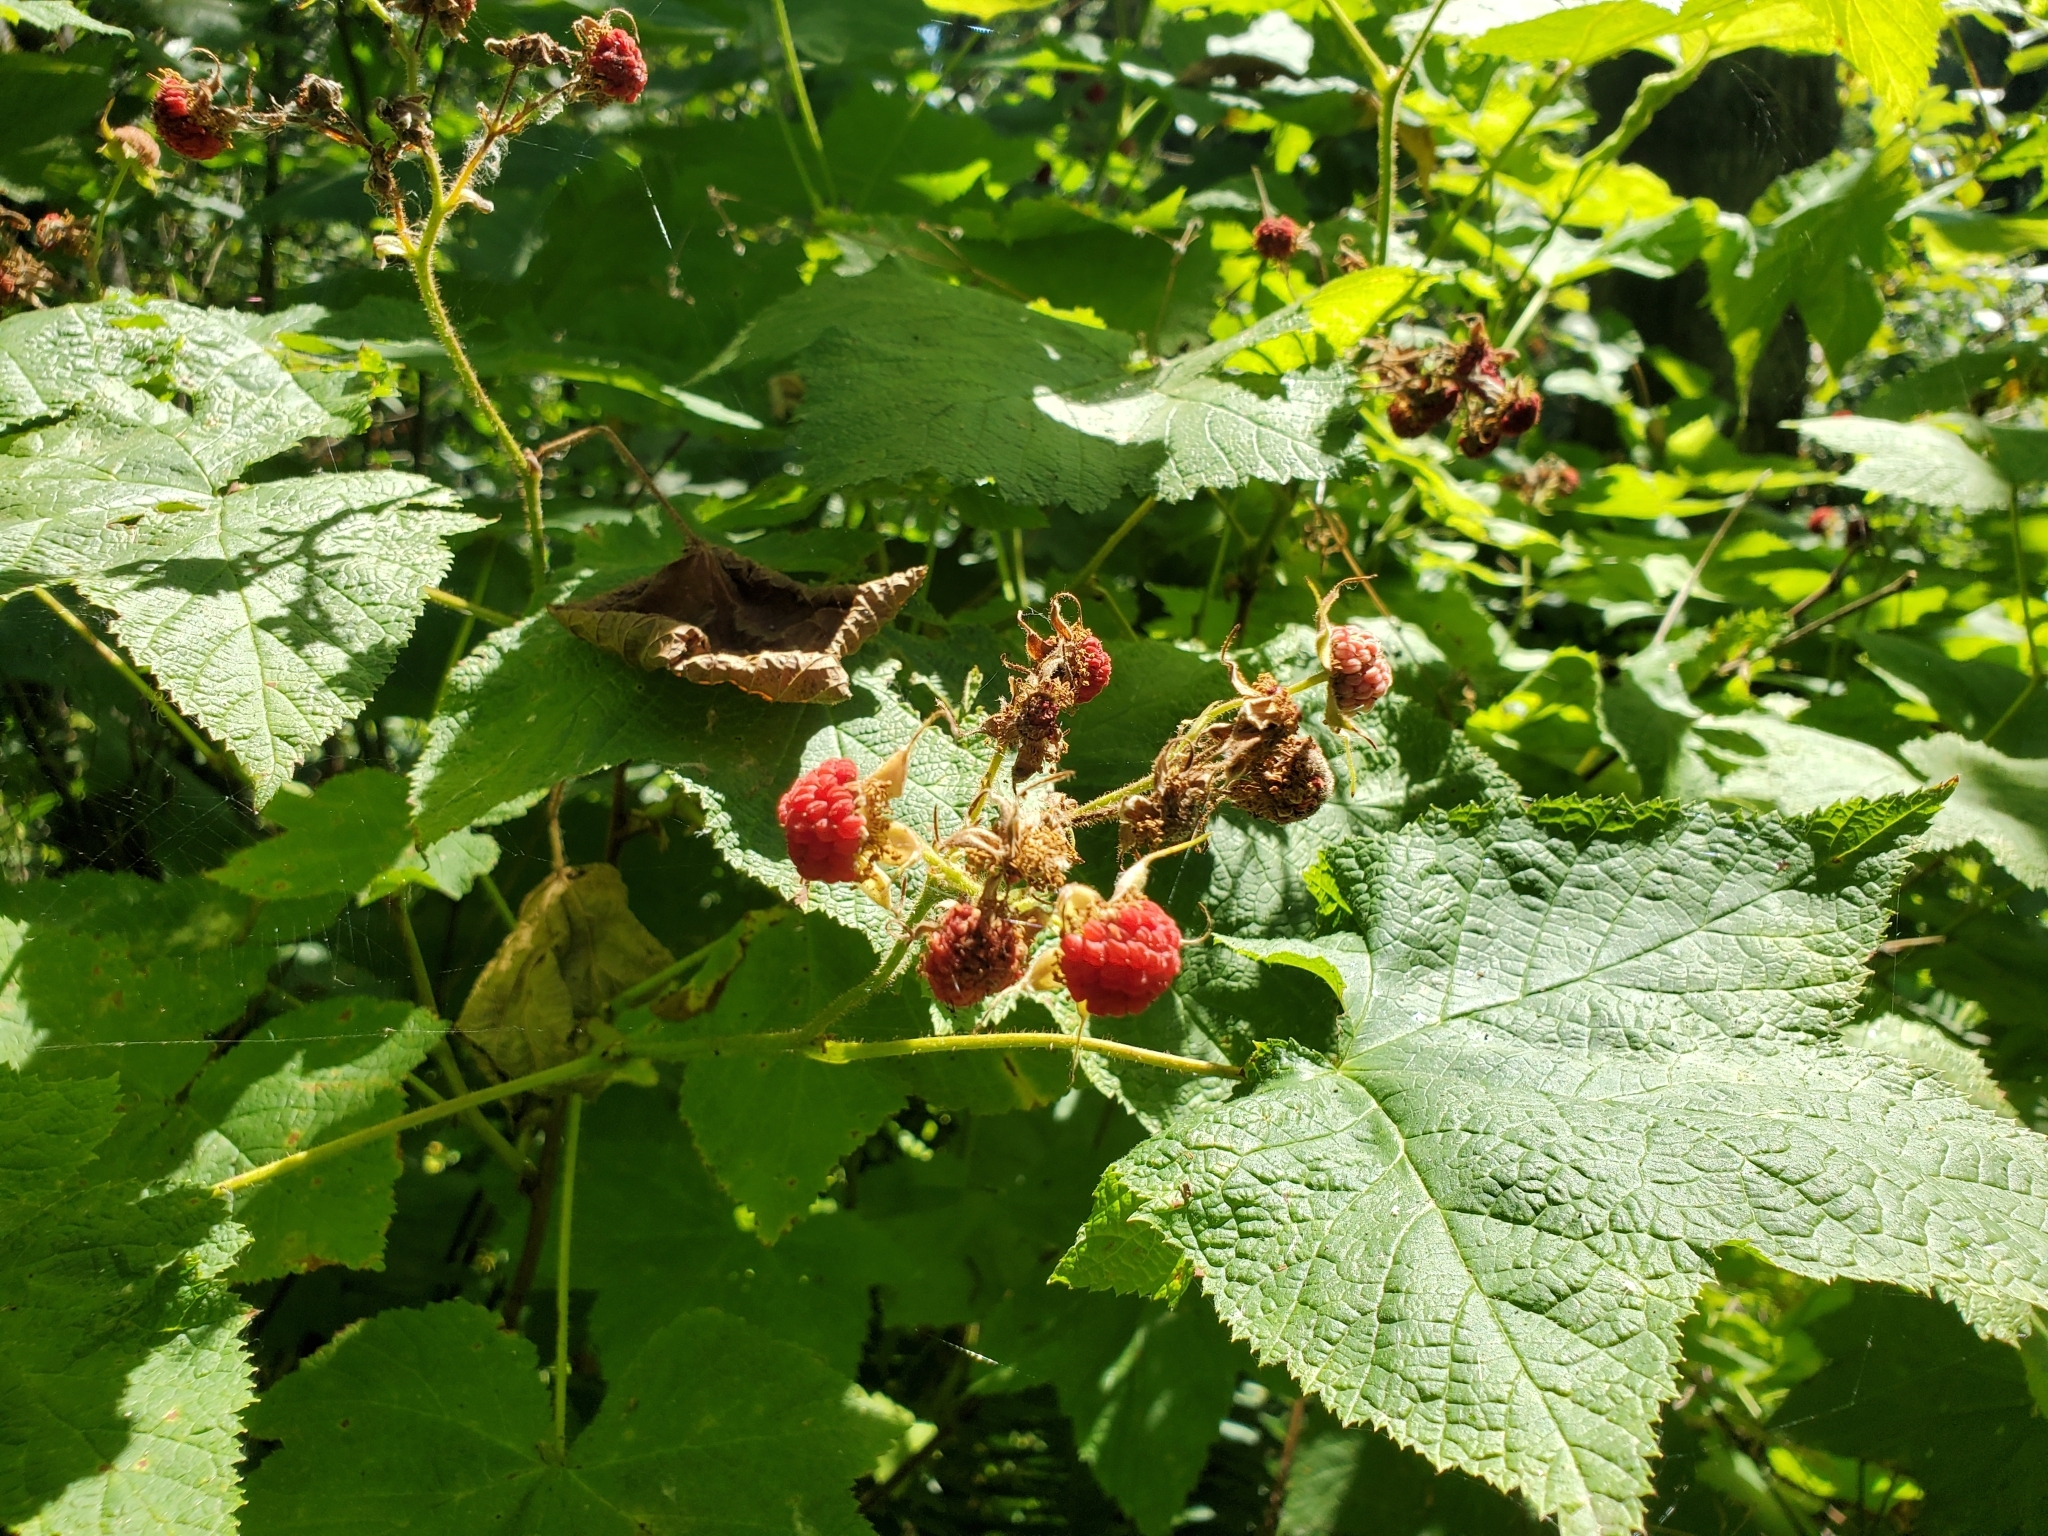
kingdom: Plantae
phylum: Tracheophyta
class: Magnoliopsida
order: Rosales
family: Rosaceae
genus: Rubus
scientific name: Rubus parviflorus
